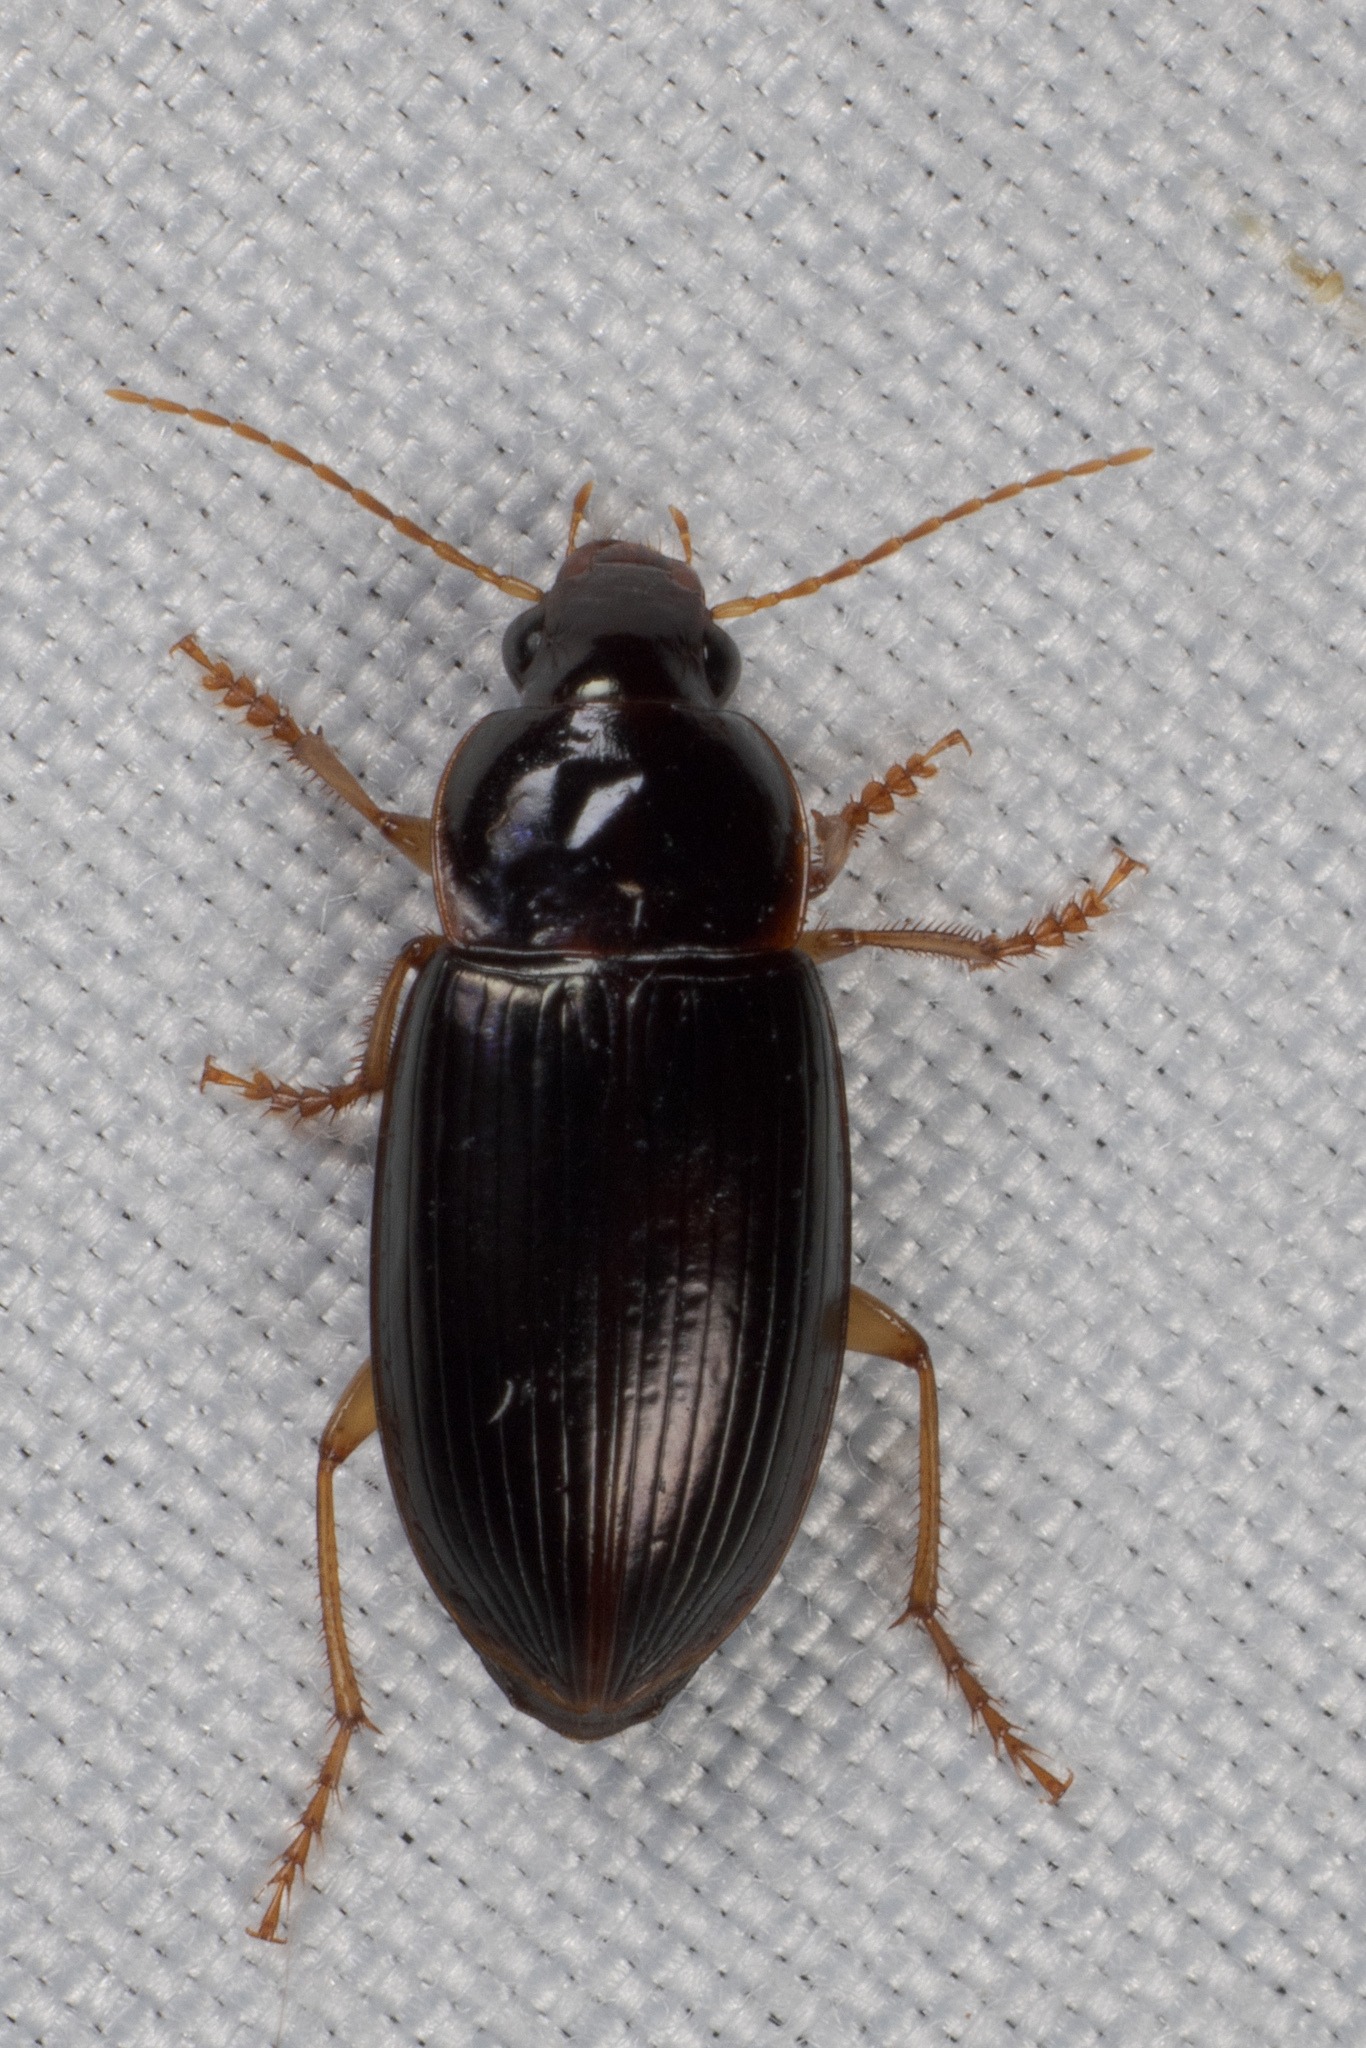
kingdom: Animalia
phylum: Arthropoda
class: Insecta
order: Coleoptera
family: Carabidae
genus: Notiobia
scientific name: Notiobia terminata
